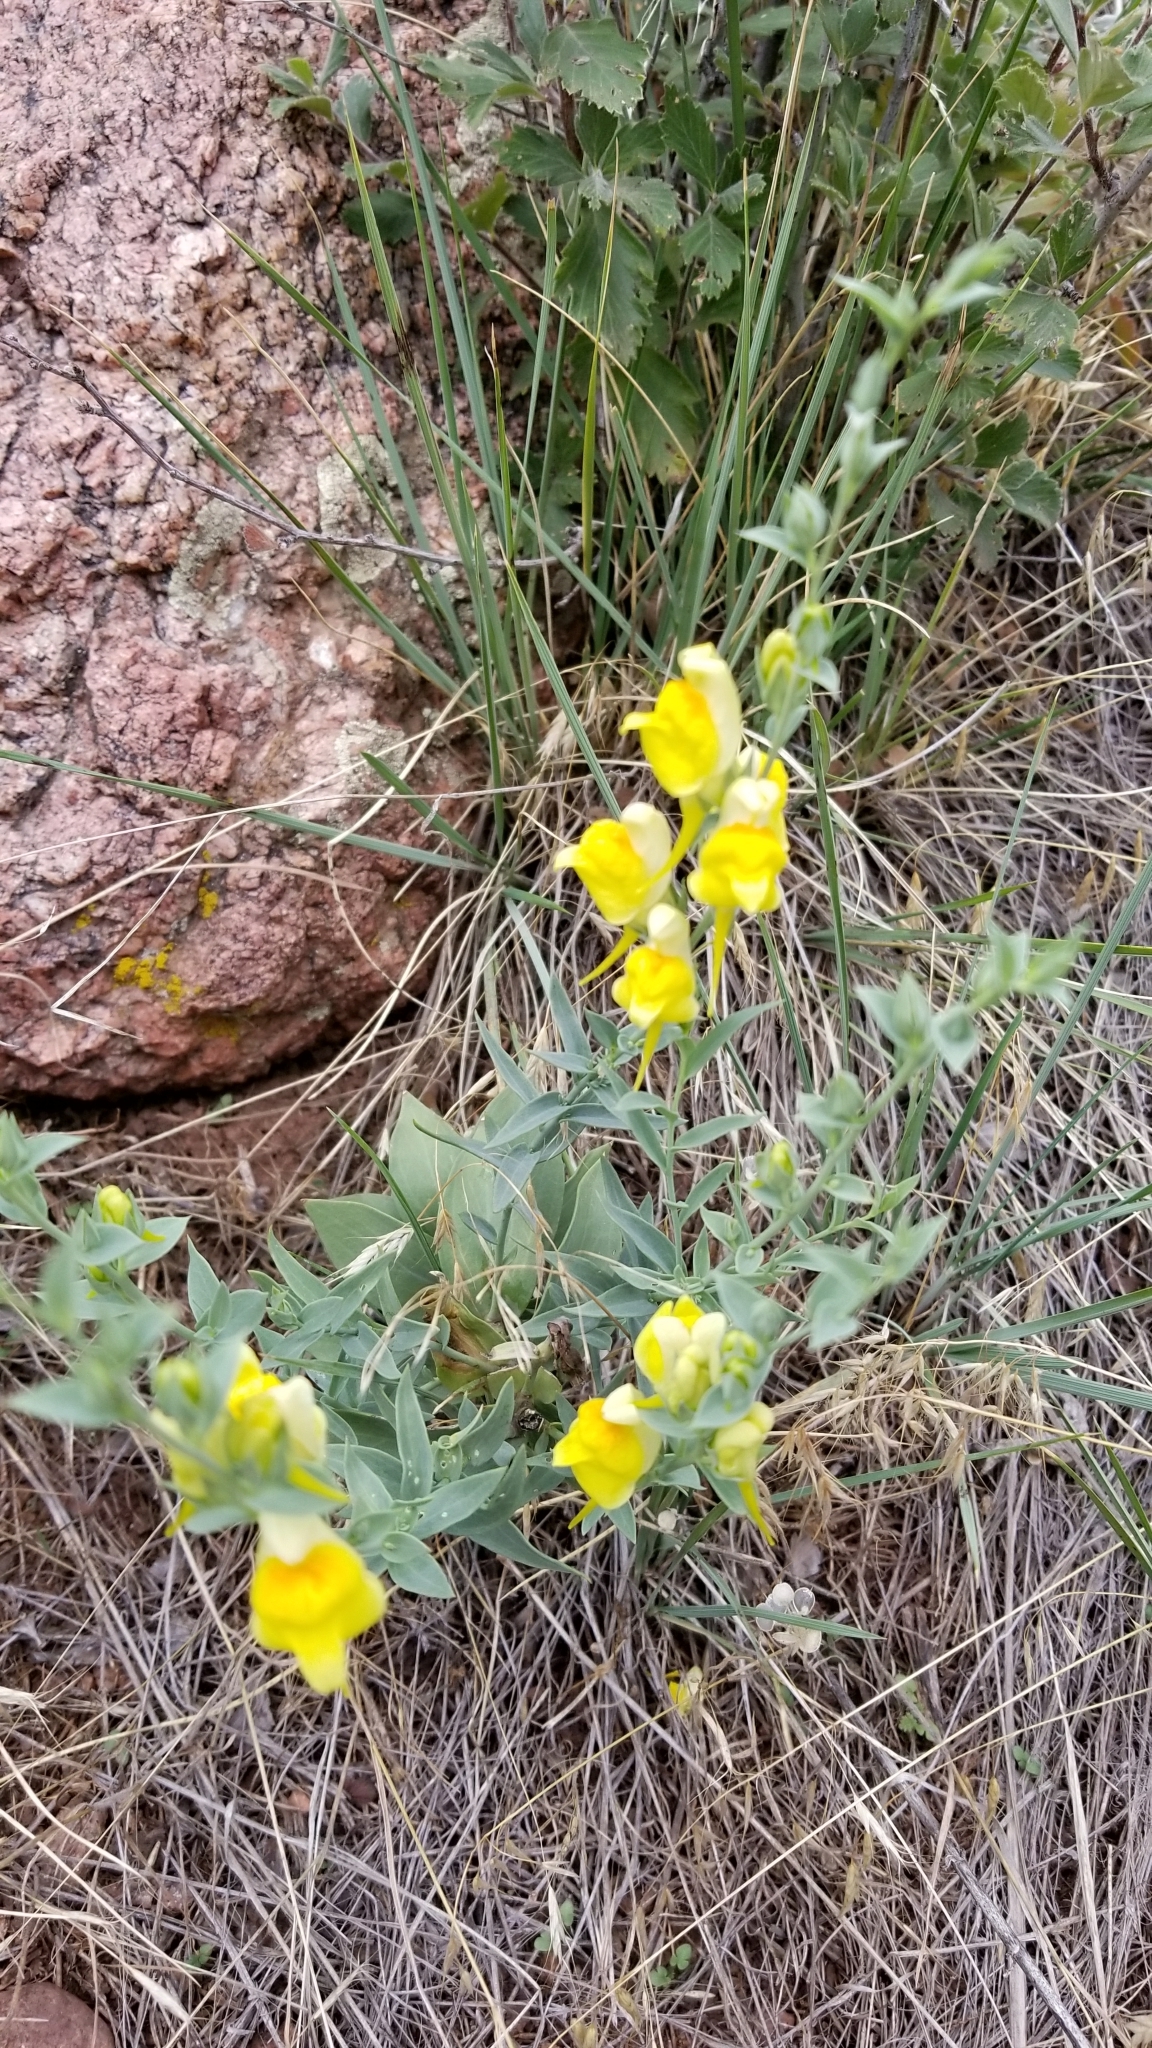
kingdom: Plantae
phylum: Tracheophyta
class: Magnoliopsida
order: Lamiales
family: Plantaginaceae
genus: Linaria
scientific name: Linaria dalmatica
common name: Dalmatian toadflax
